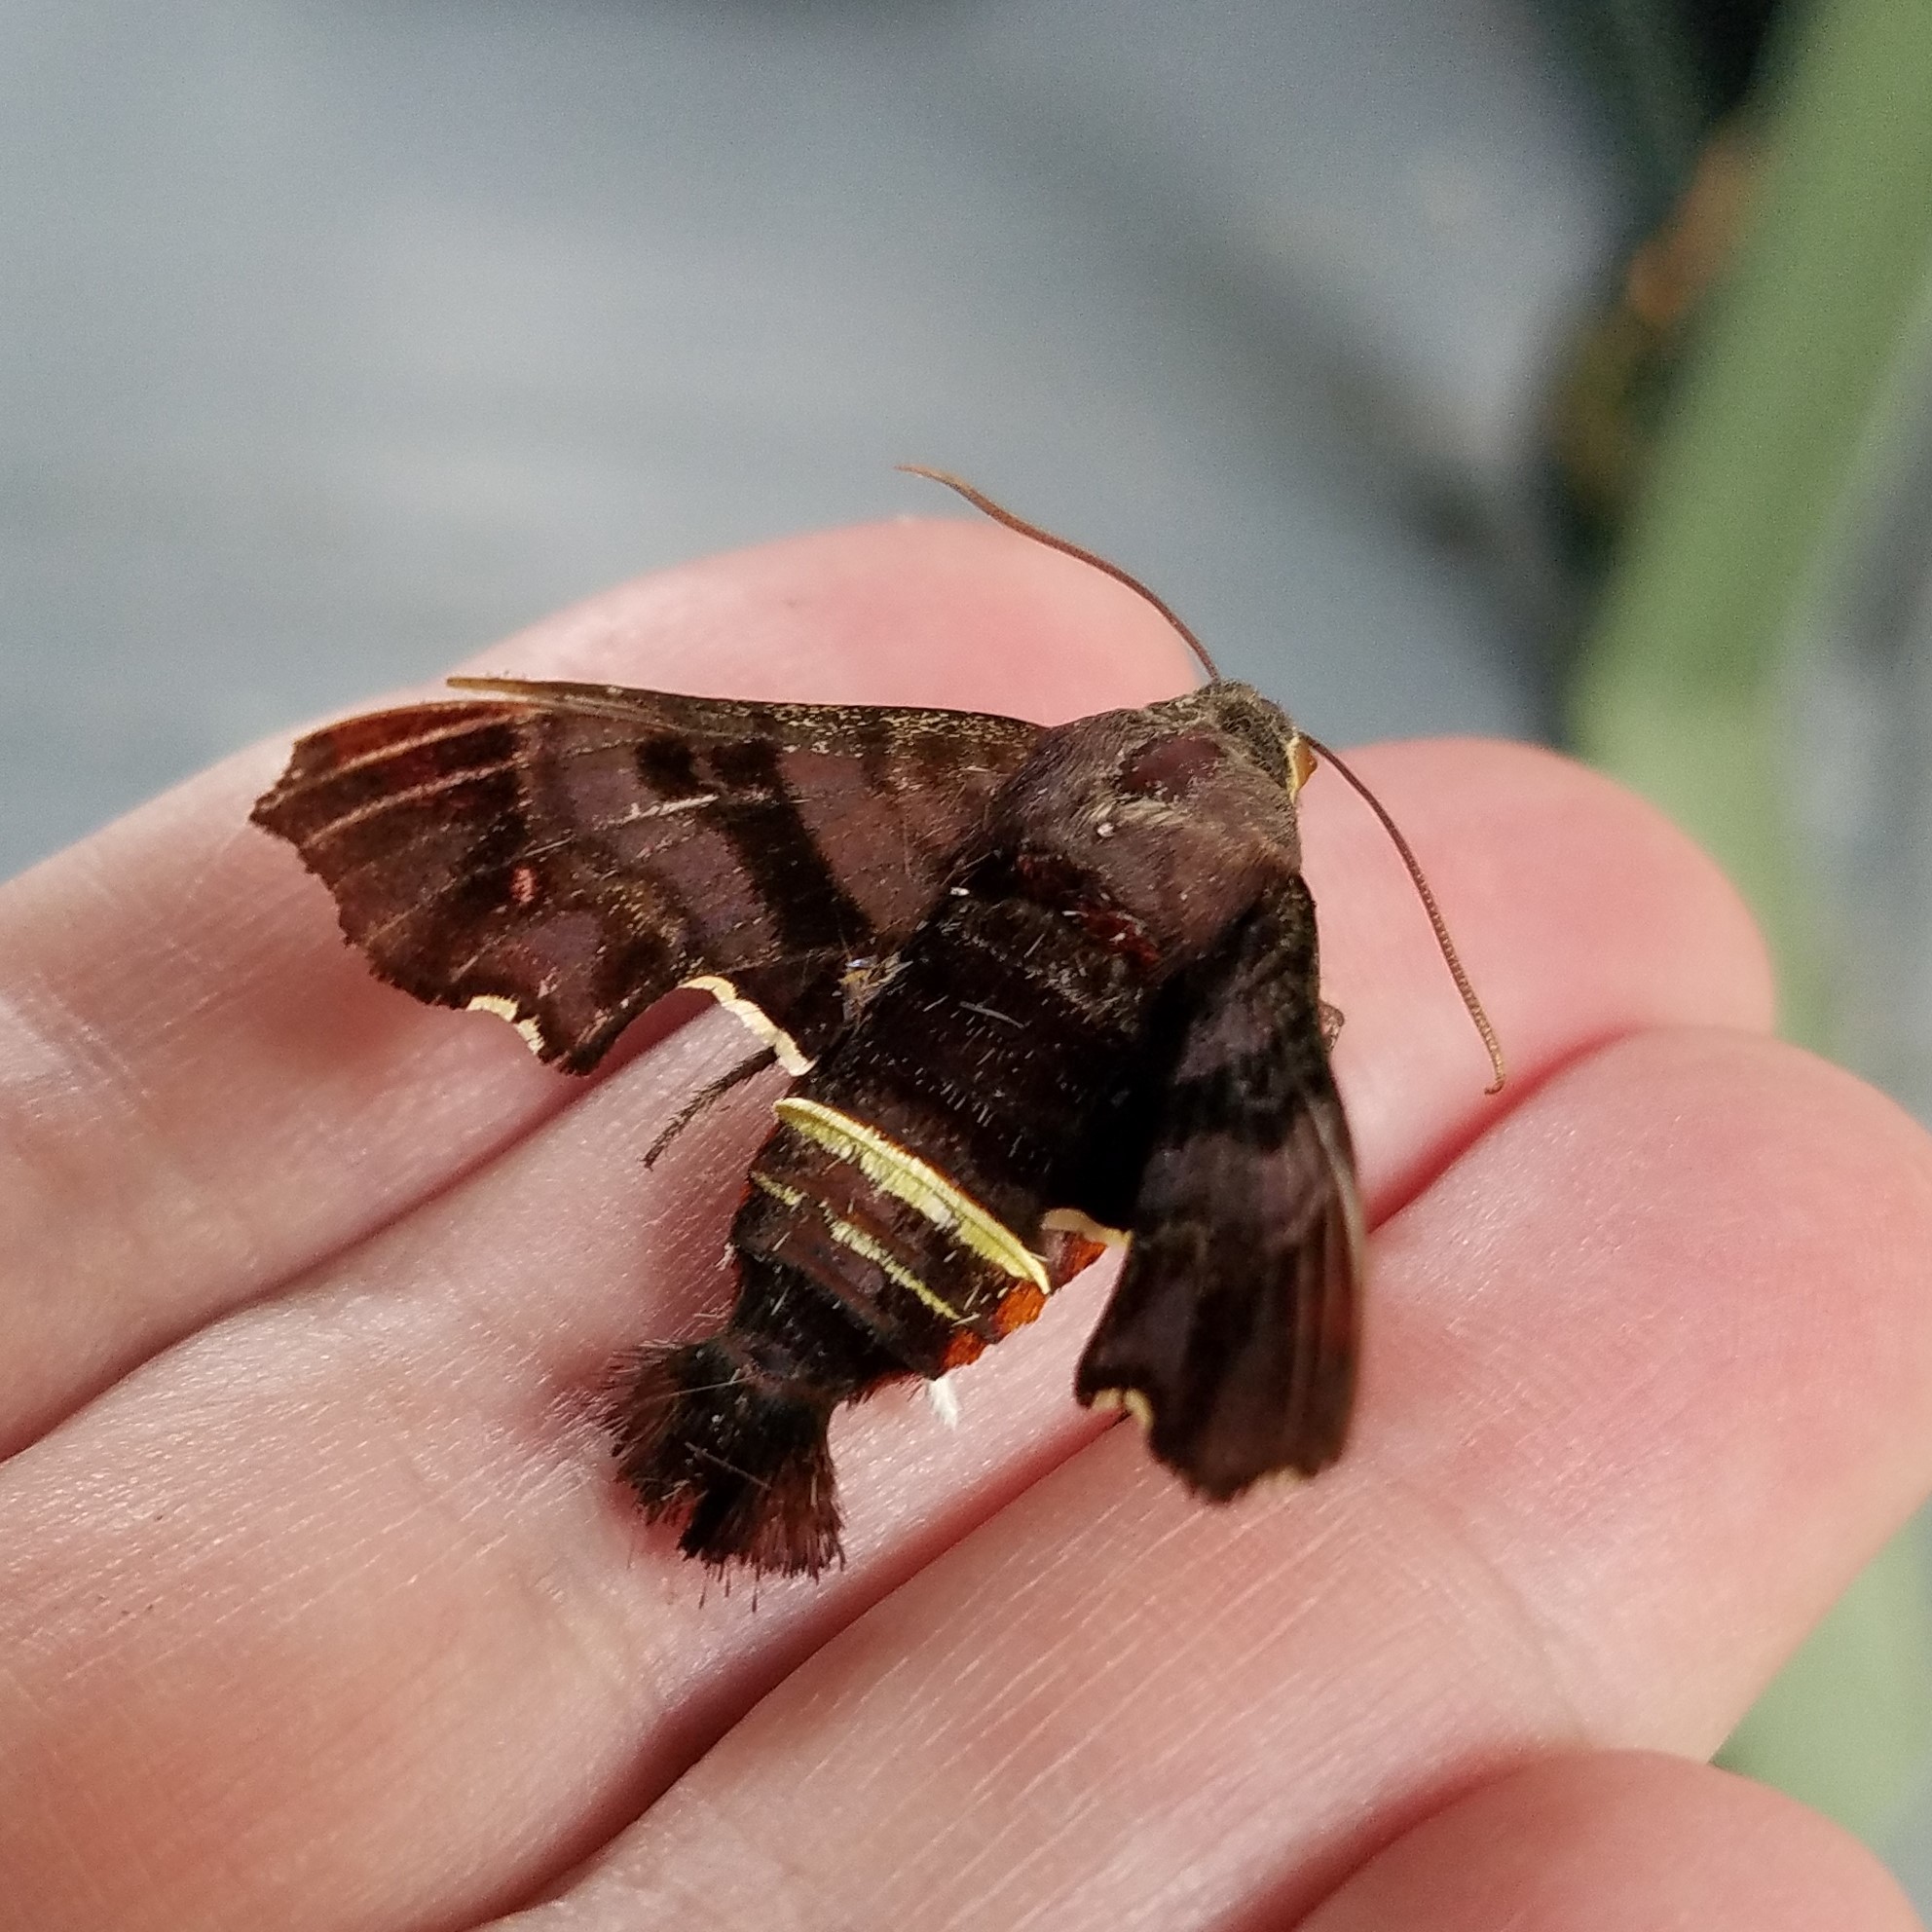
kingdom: Animalia
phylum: Arthropoda
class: Insecta
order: Lepidoptera
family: Sphingidae
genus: Amphion
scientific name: Amphion floridensis
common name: Nessus sphinx
